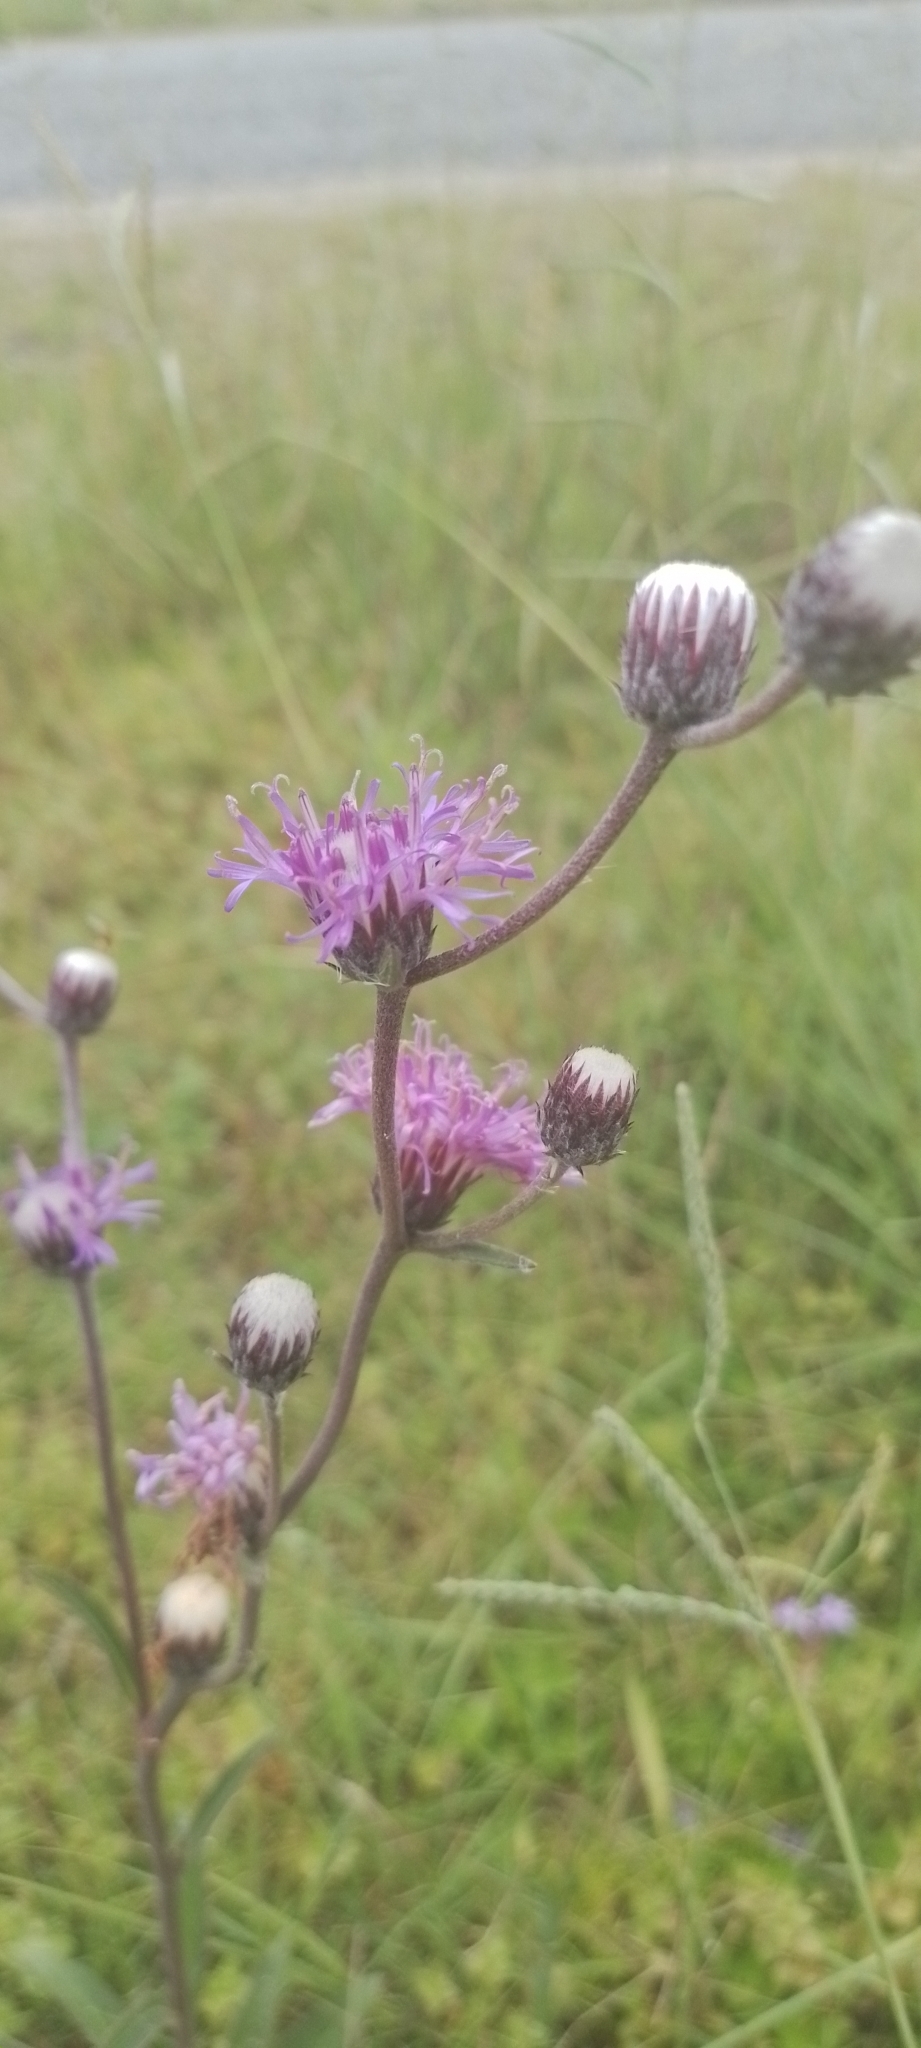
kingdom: Plantae
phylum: Tracheophyta
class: Magnoliopsida
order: Asterales
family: Asteraceae
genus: Chrysolaena
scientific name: Chrysolaena flexuosa
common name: Zig-zag vernonia
